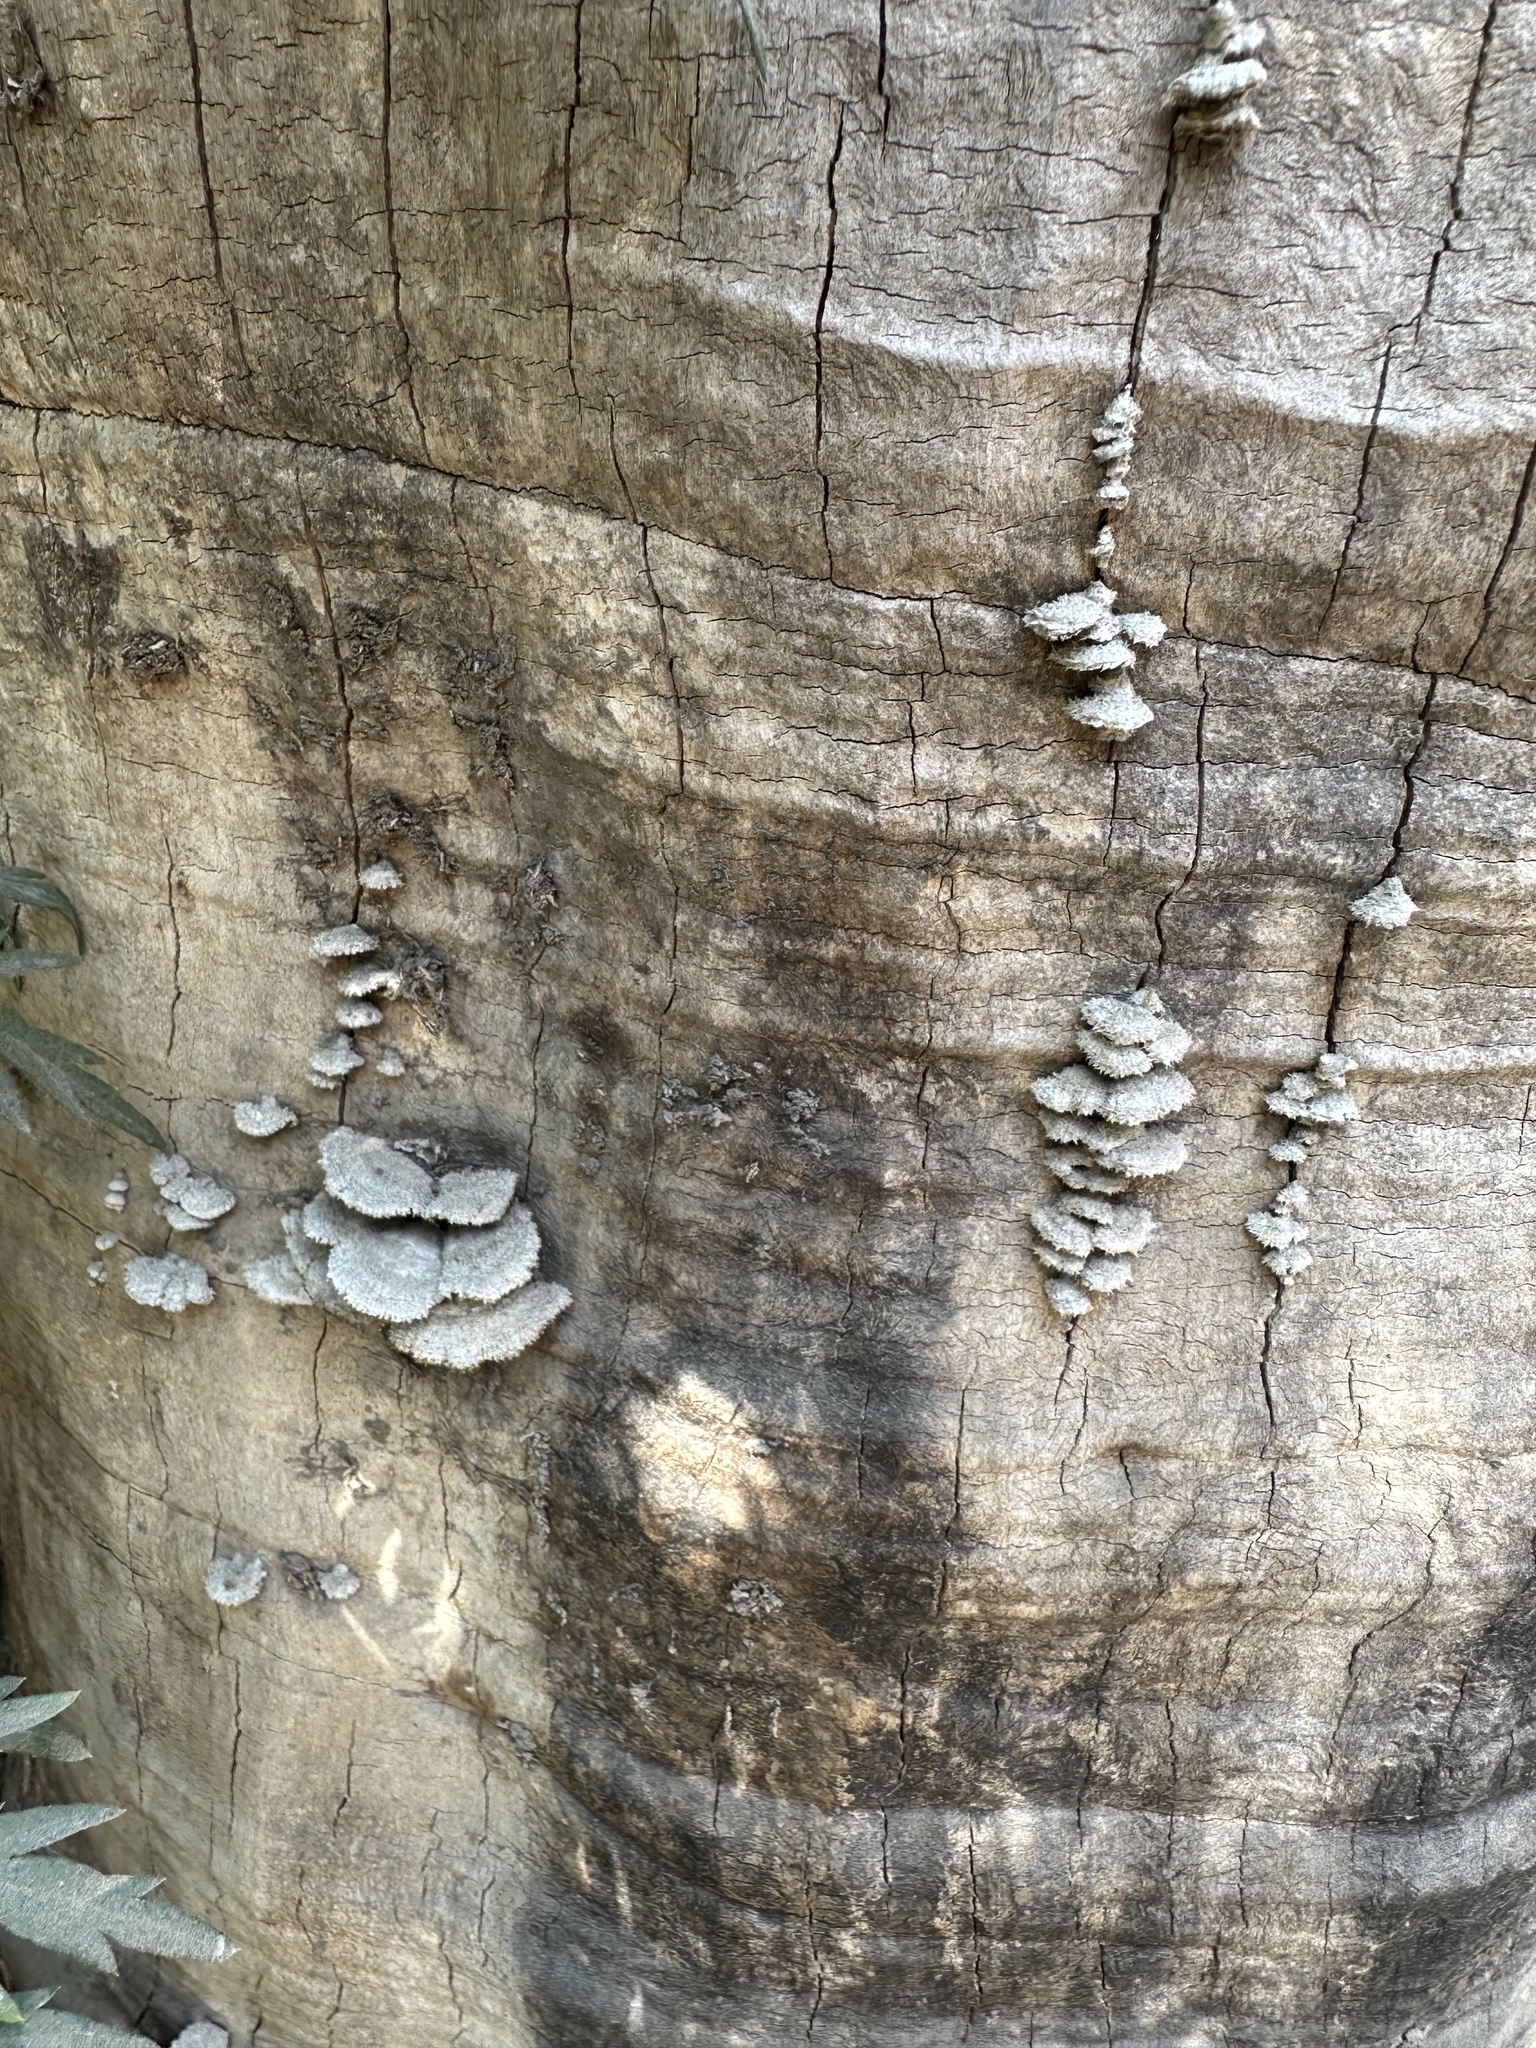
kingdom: Fungi
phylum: Basidiomycota
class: Agaricomycetes
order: Agaricales
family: Schizophyllaceae
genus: Schizophyllum
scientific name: Schizophyllum commune
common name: Common porecrust
